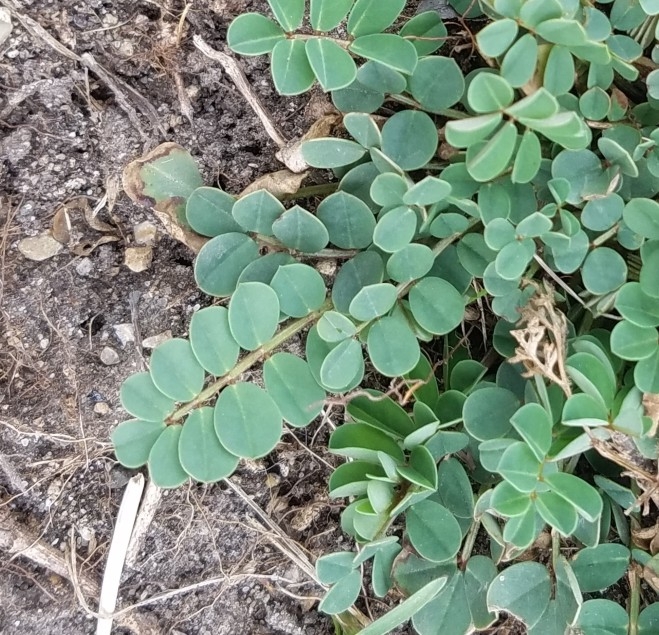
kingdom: Plantae
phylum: Tracheophyta
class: Magnoliopsida
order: Fabales
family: Fabaceae
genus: Coronilla
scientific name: Coronilla varia
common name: Crownvetch
